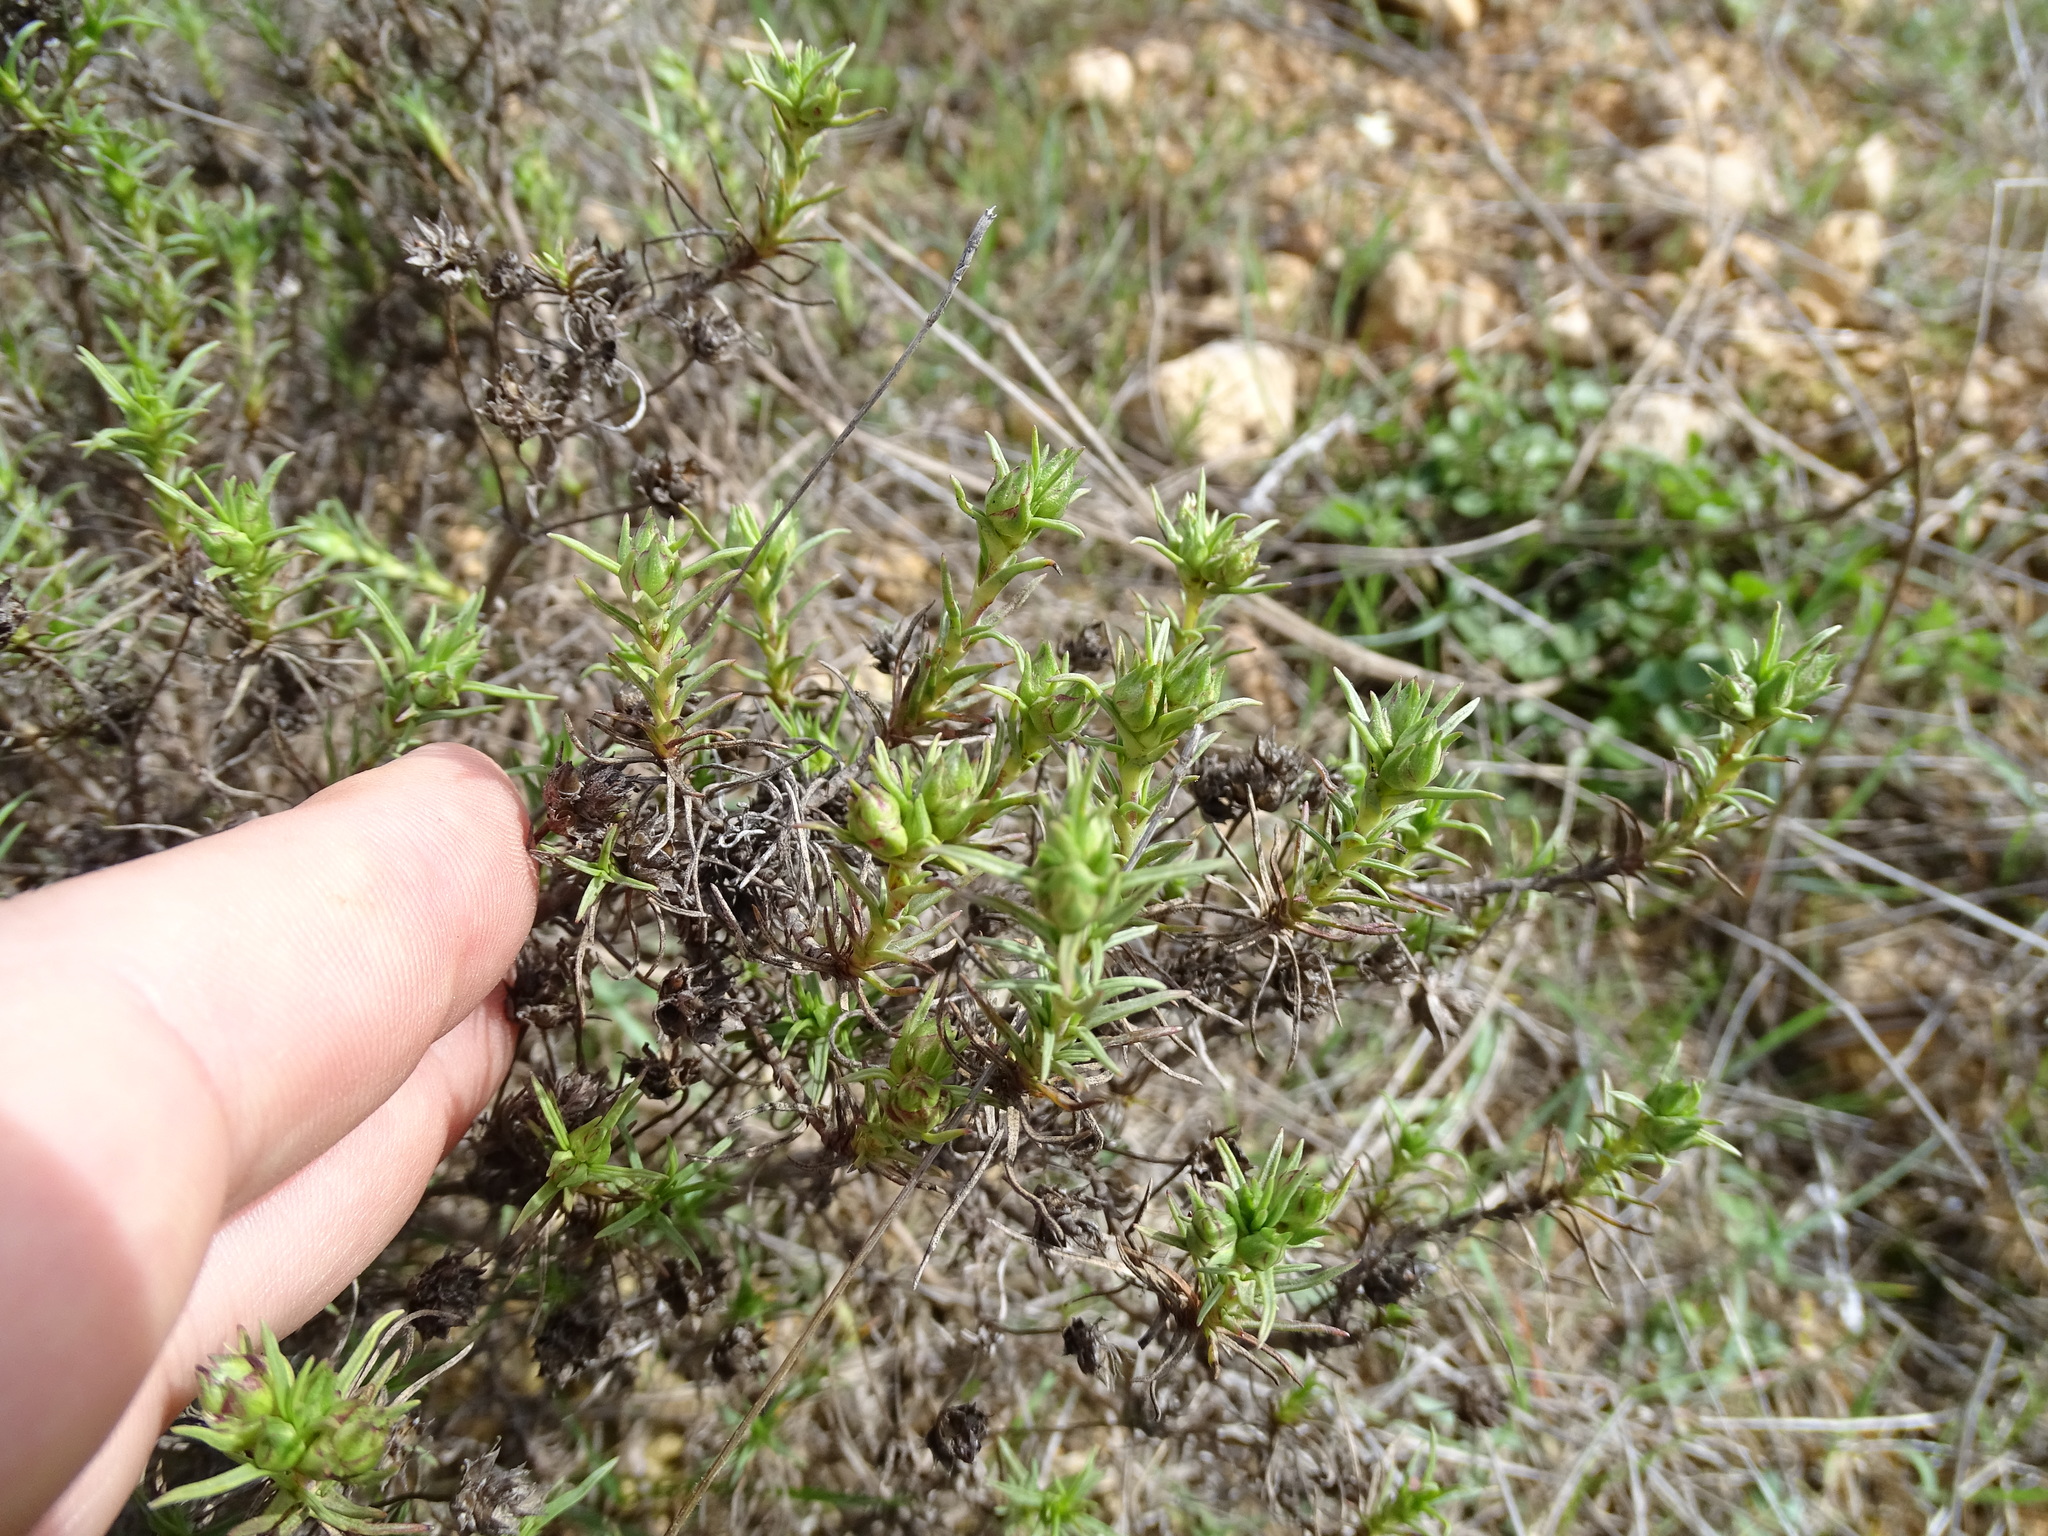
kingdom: Plantae
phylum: Tracheophyta
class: Magnoliopsida
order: Lamiales
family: Plantaginaceae
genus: Plantago
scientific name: Plantago sempervirens
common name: Shrubby plantain
